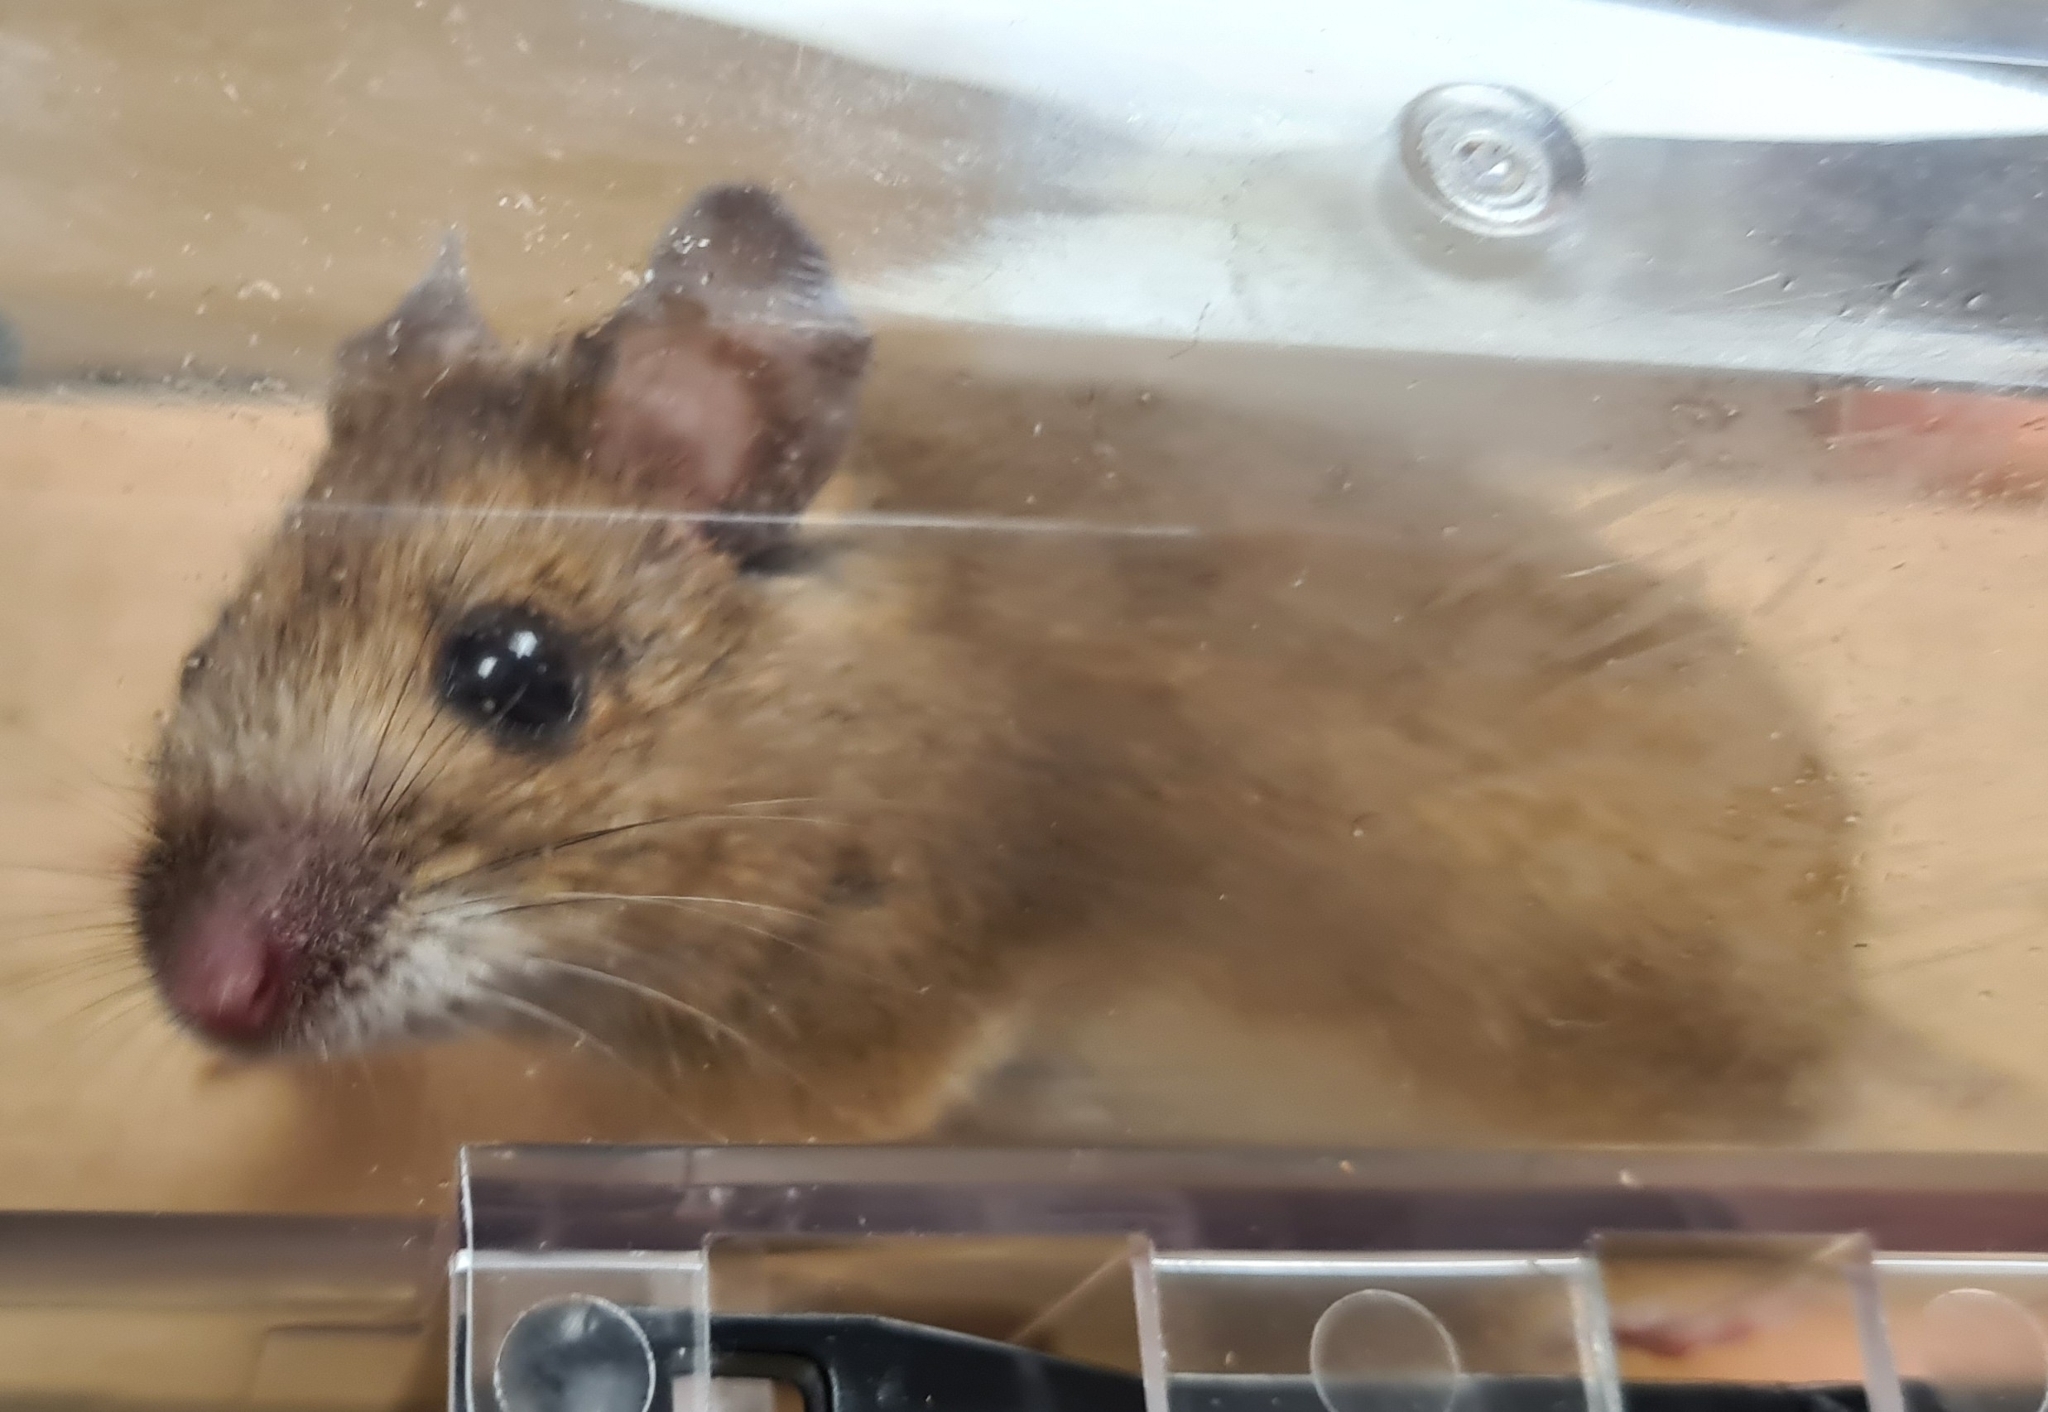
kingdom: Animalia
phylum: Chordata
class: Mammalia
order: Rodentia
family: Muridae
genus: Apodemus
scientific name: Apodemus flavicollis
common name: Yellow-necked field mouse
